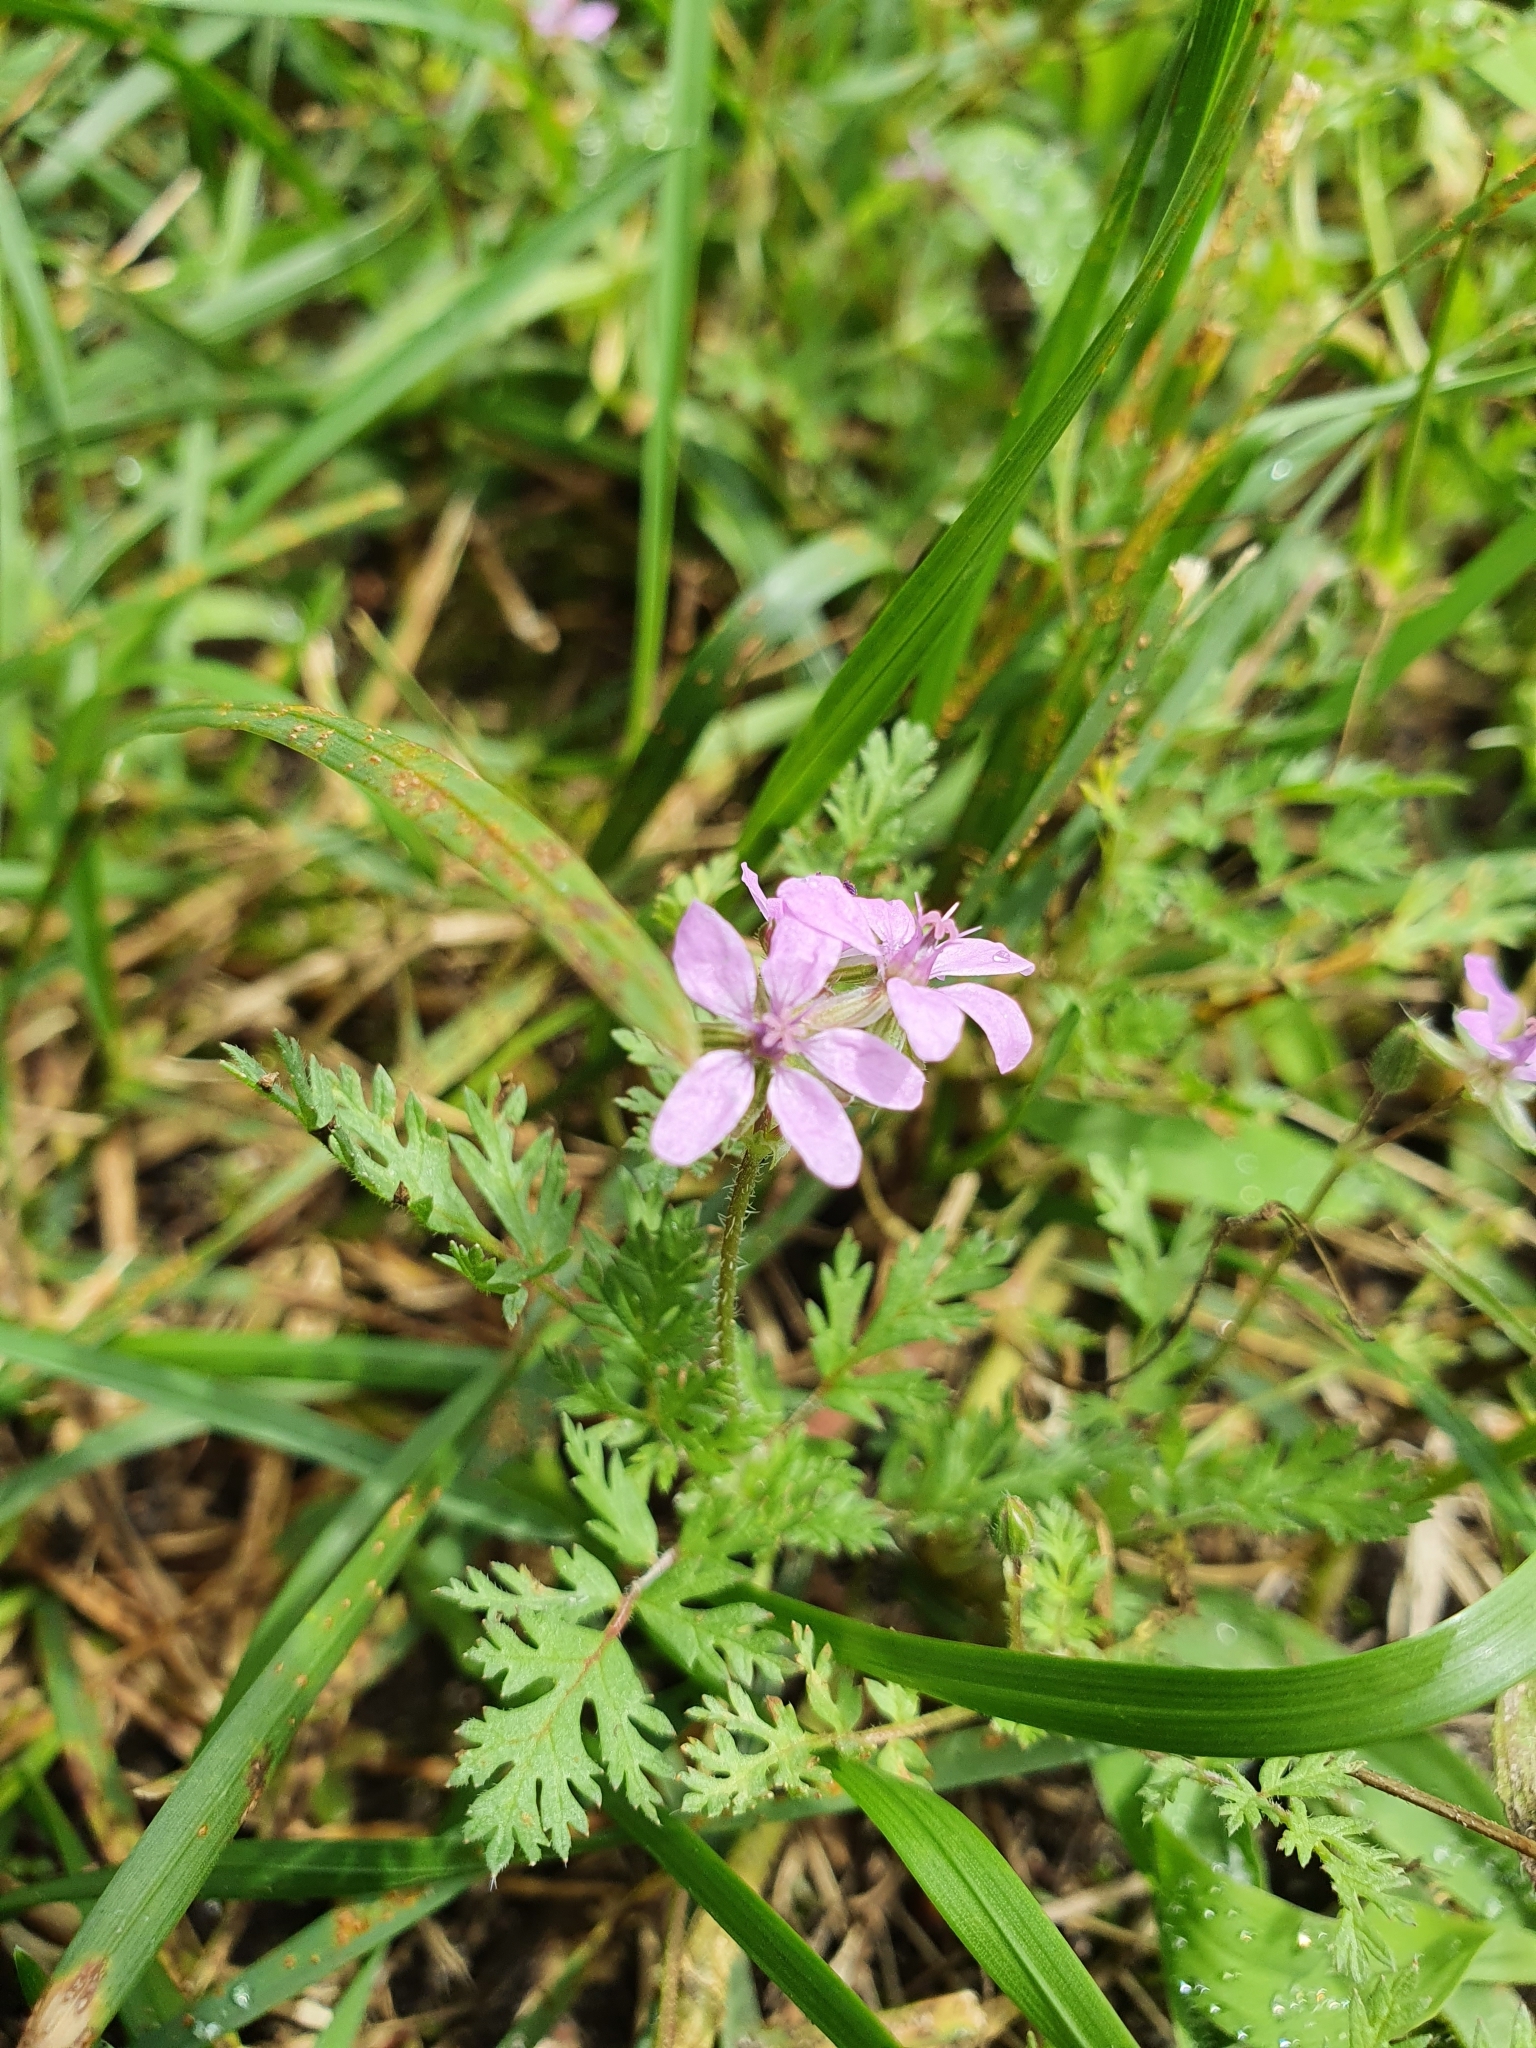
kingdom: Plantae
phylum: Tracheophyta
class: Magnoliopsida
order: Geraniales
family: Geraniaceae
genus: Erodium
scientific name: Erodium cicutarium
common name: Common stork's-bill
